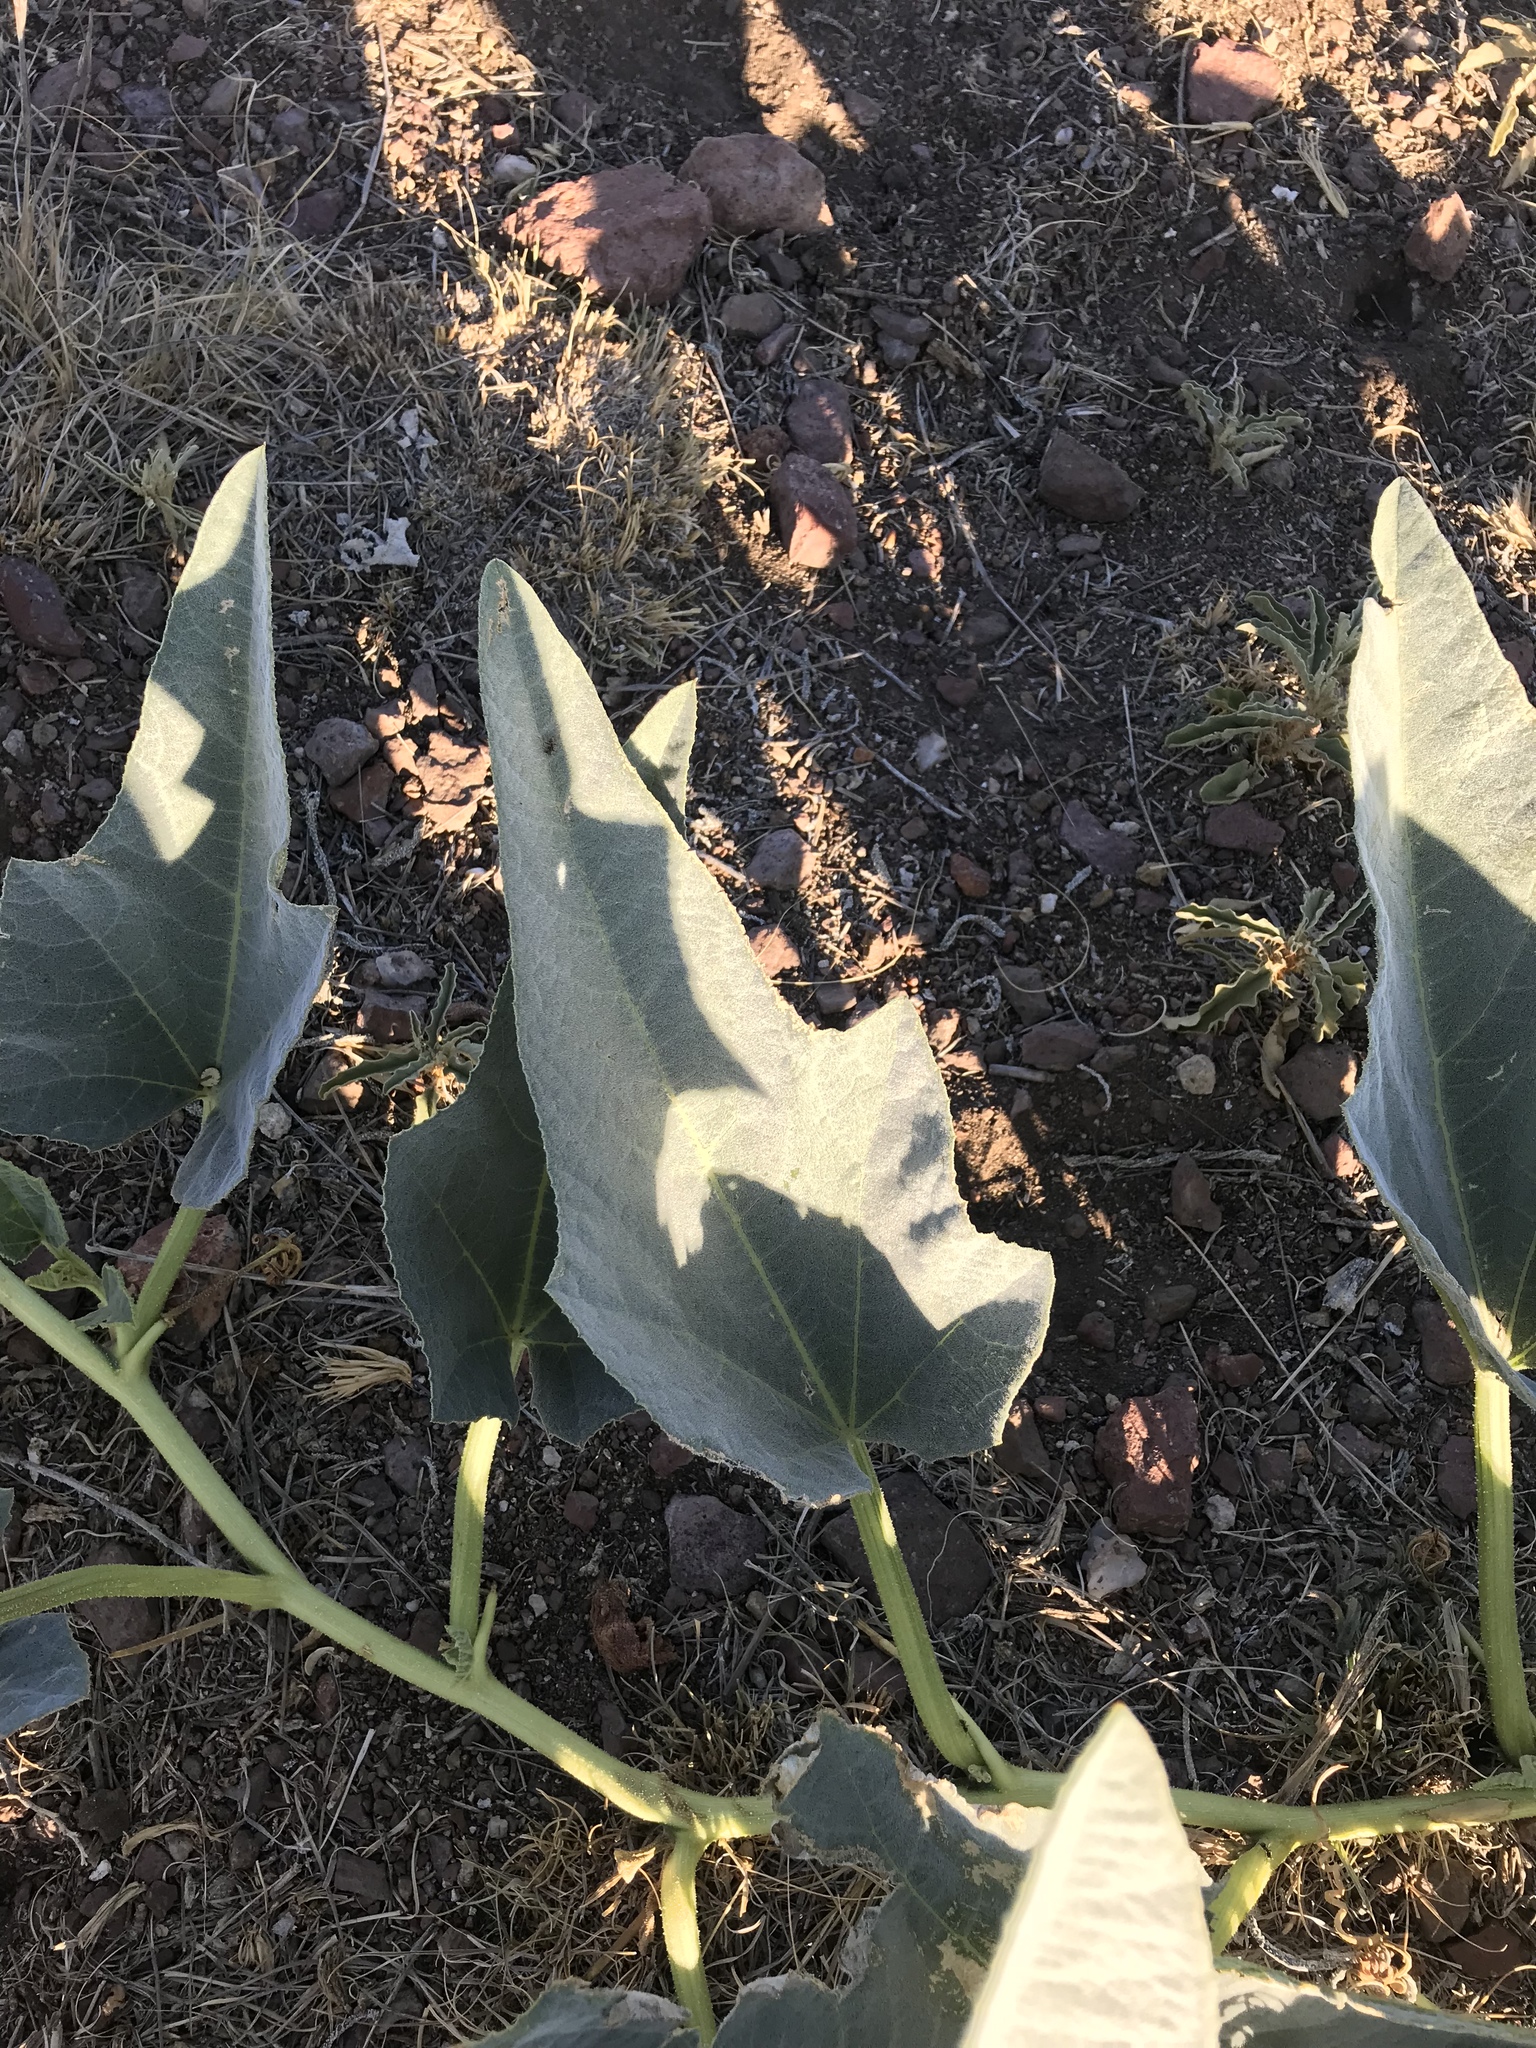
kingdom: Plantae
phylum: Tracheophyta
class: Magnoliopsida
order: Cucurbitales
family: Cucurbitaceae
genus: Cucurbita
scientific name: Cucurbita foetidissima
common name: Buffalo gourd
